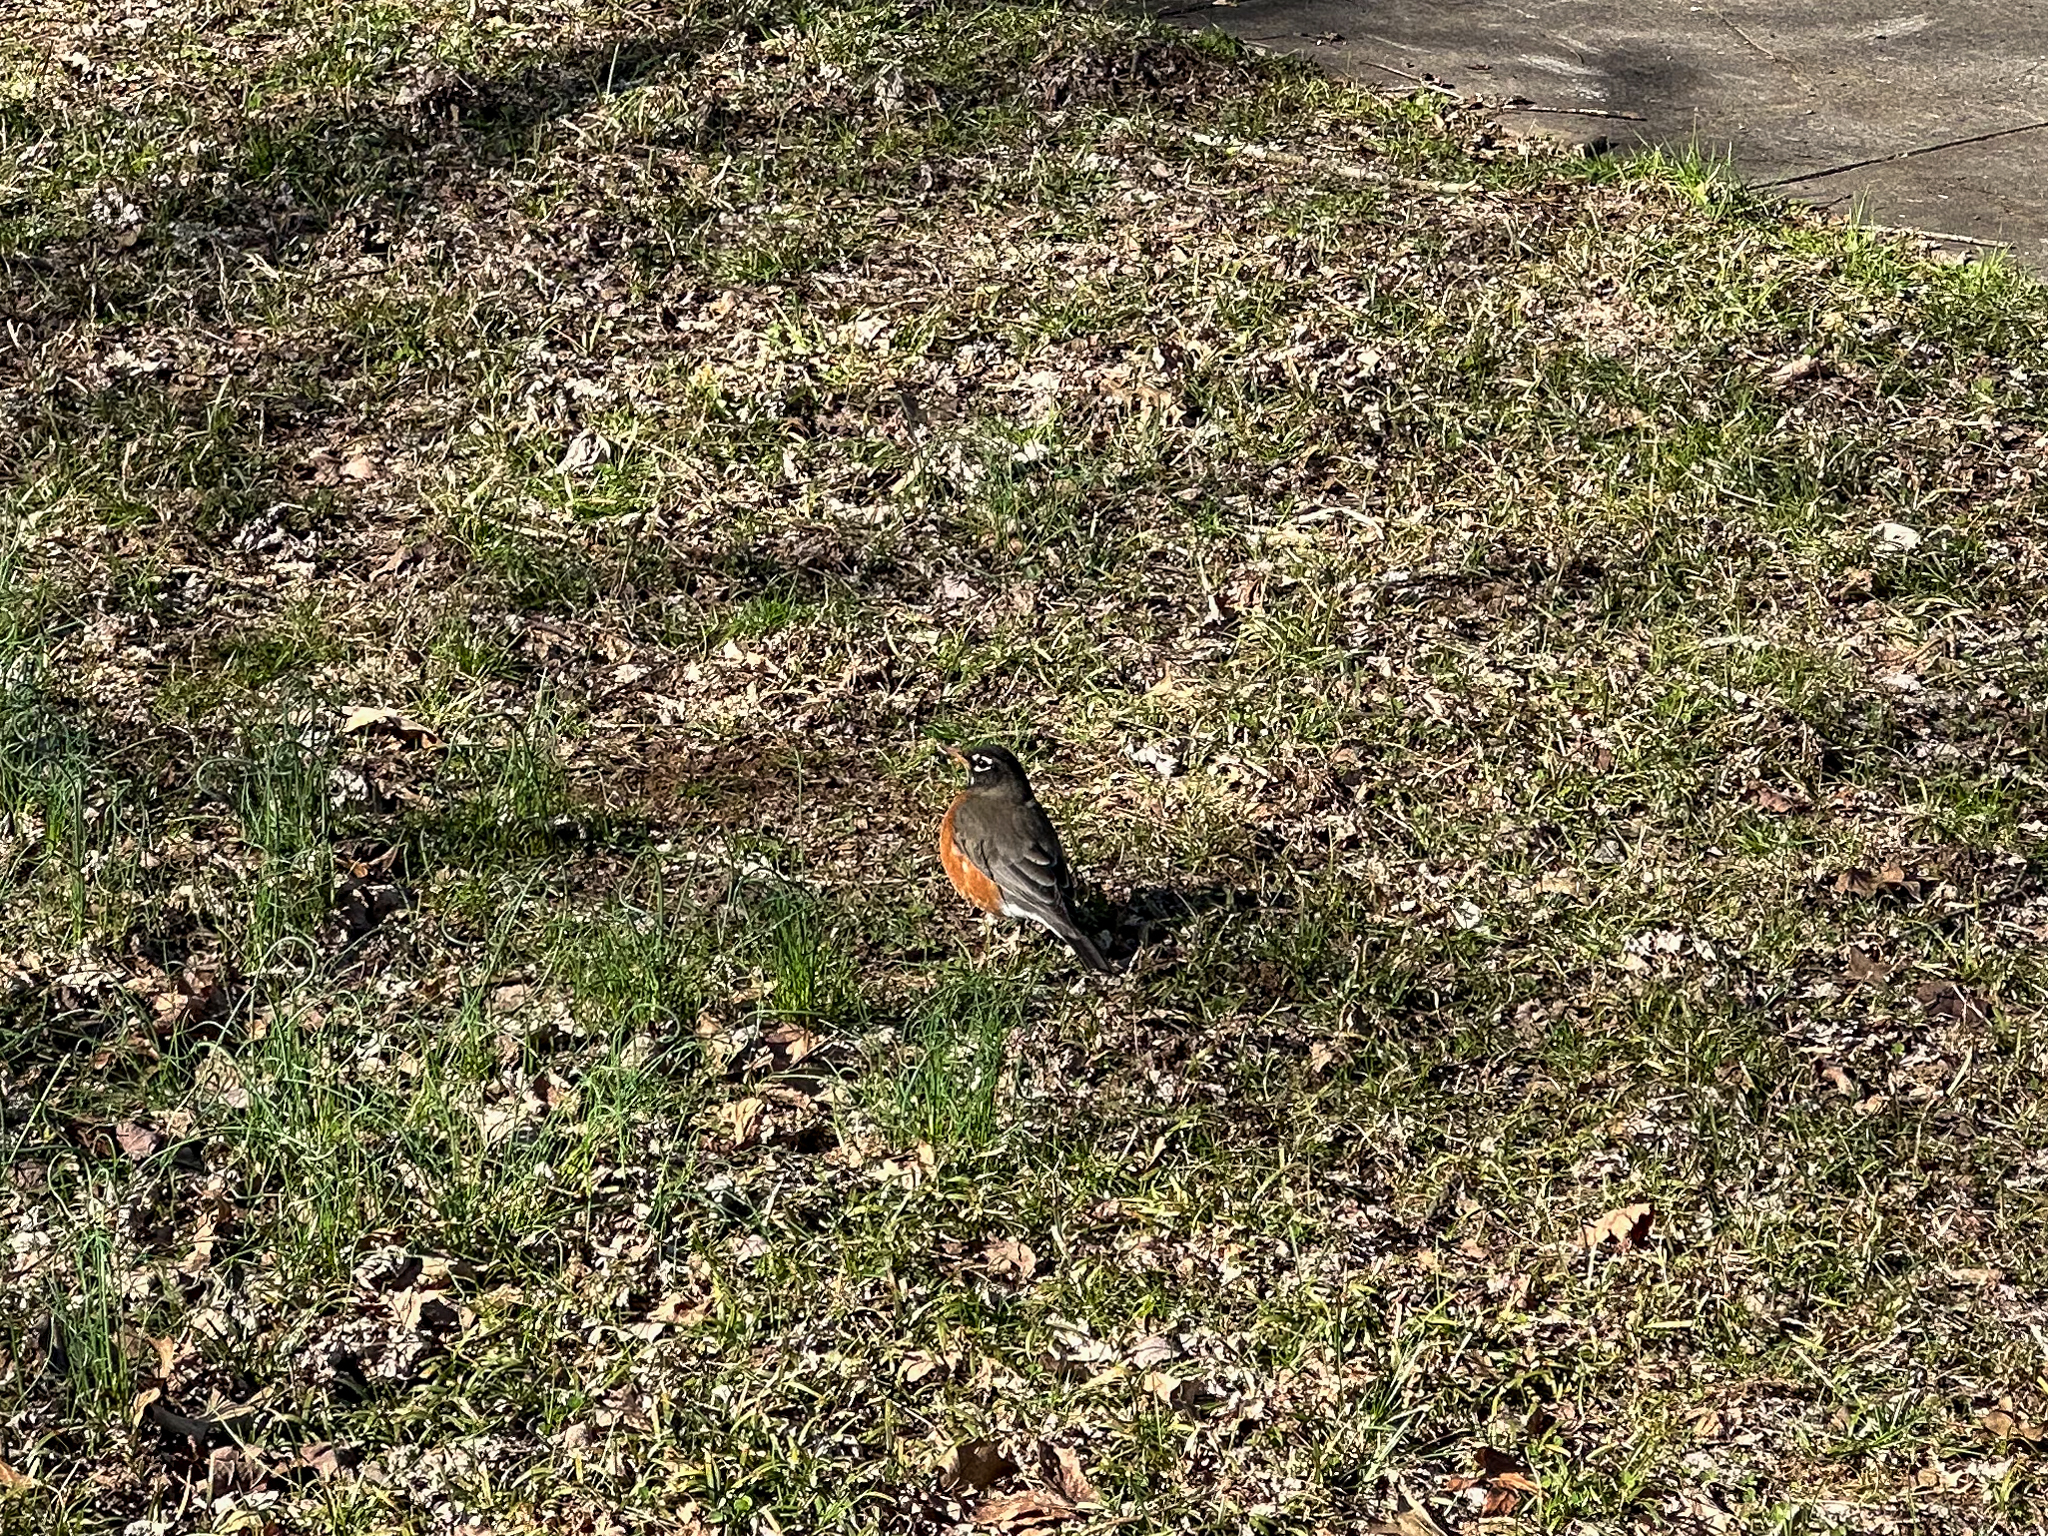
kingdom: Animalia
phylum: Chordata
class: Aves
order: Passeriformes
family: Turdidae
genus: Turdus
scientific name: Turdus migratorius
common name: American robin
